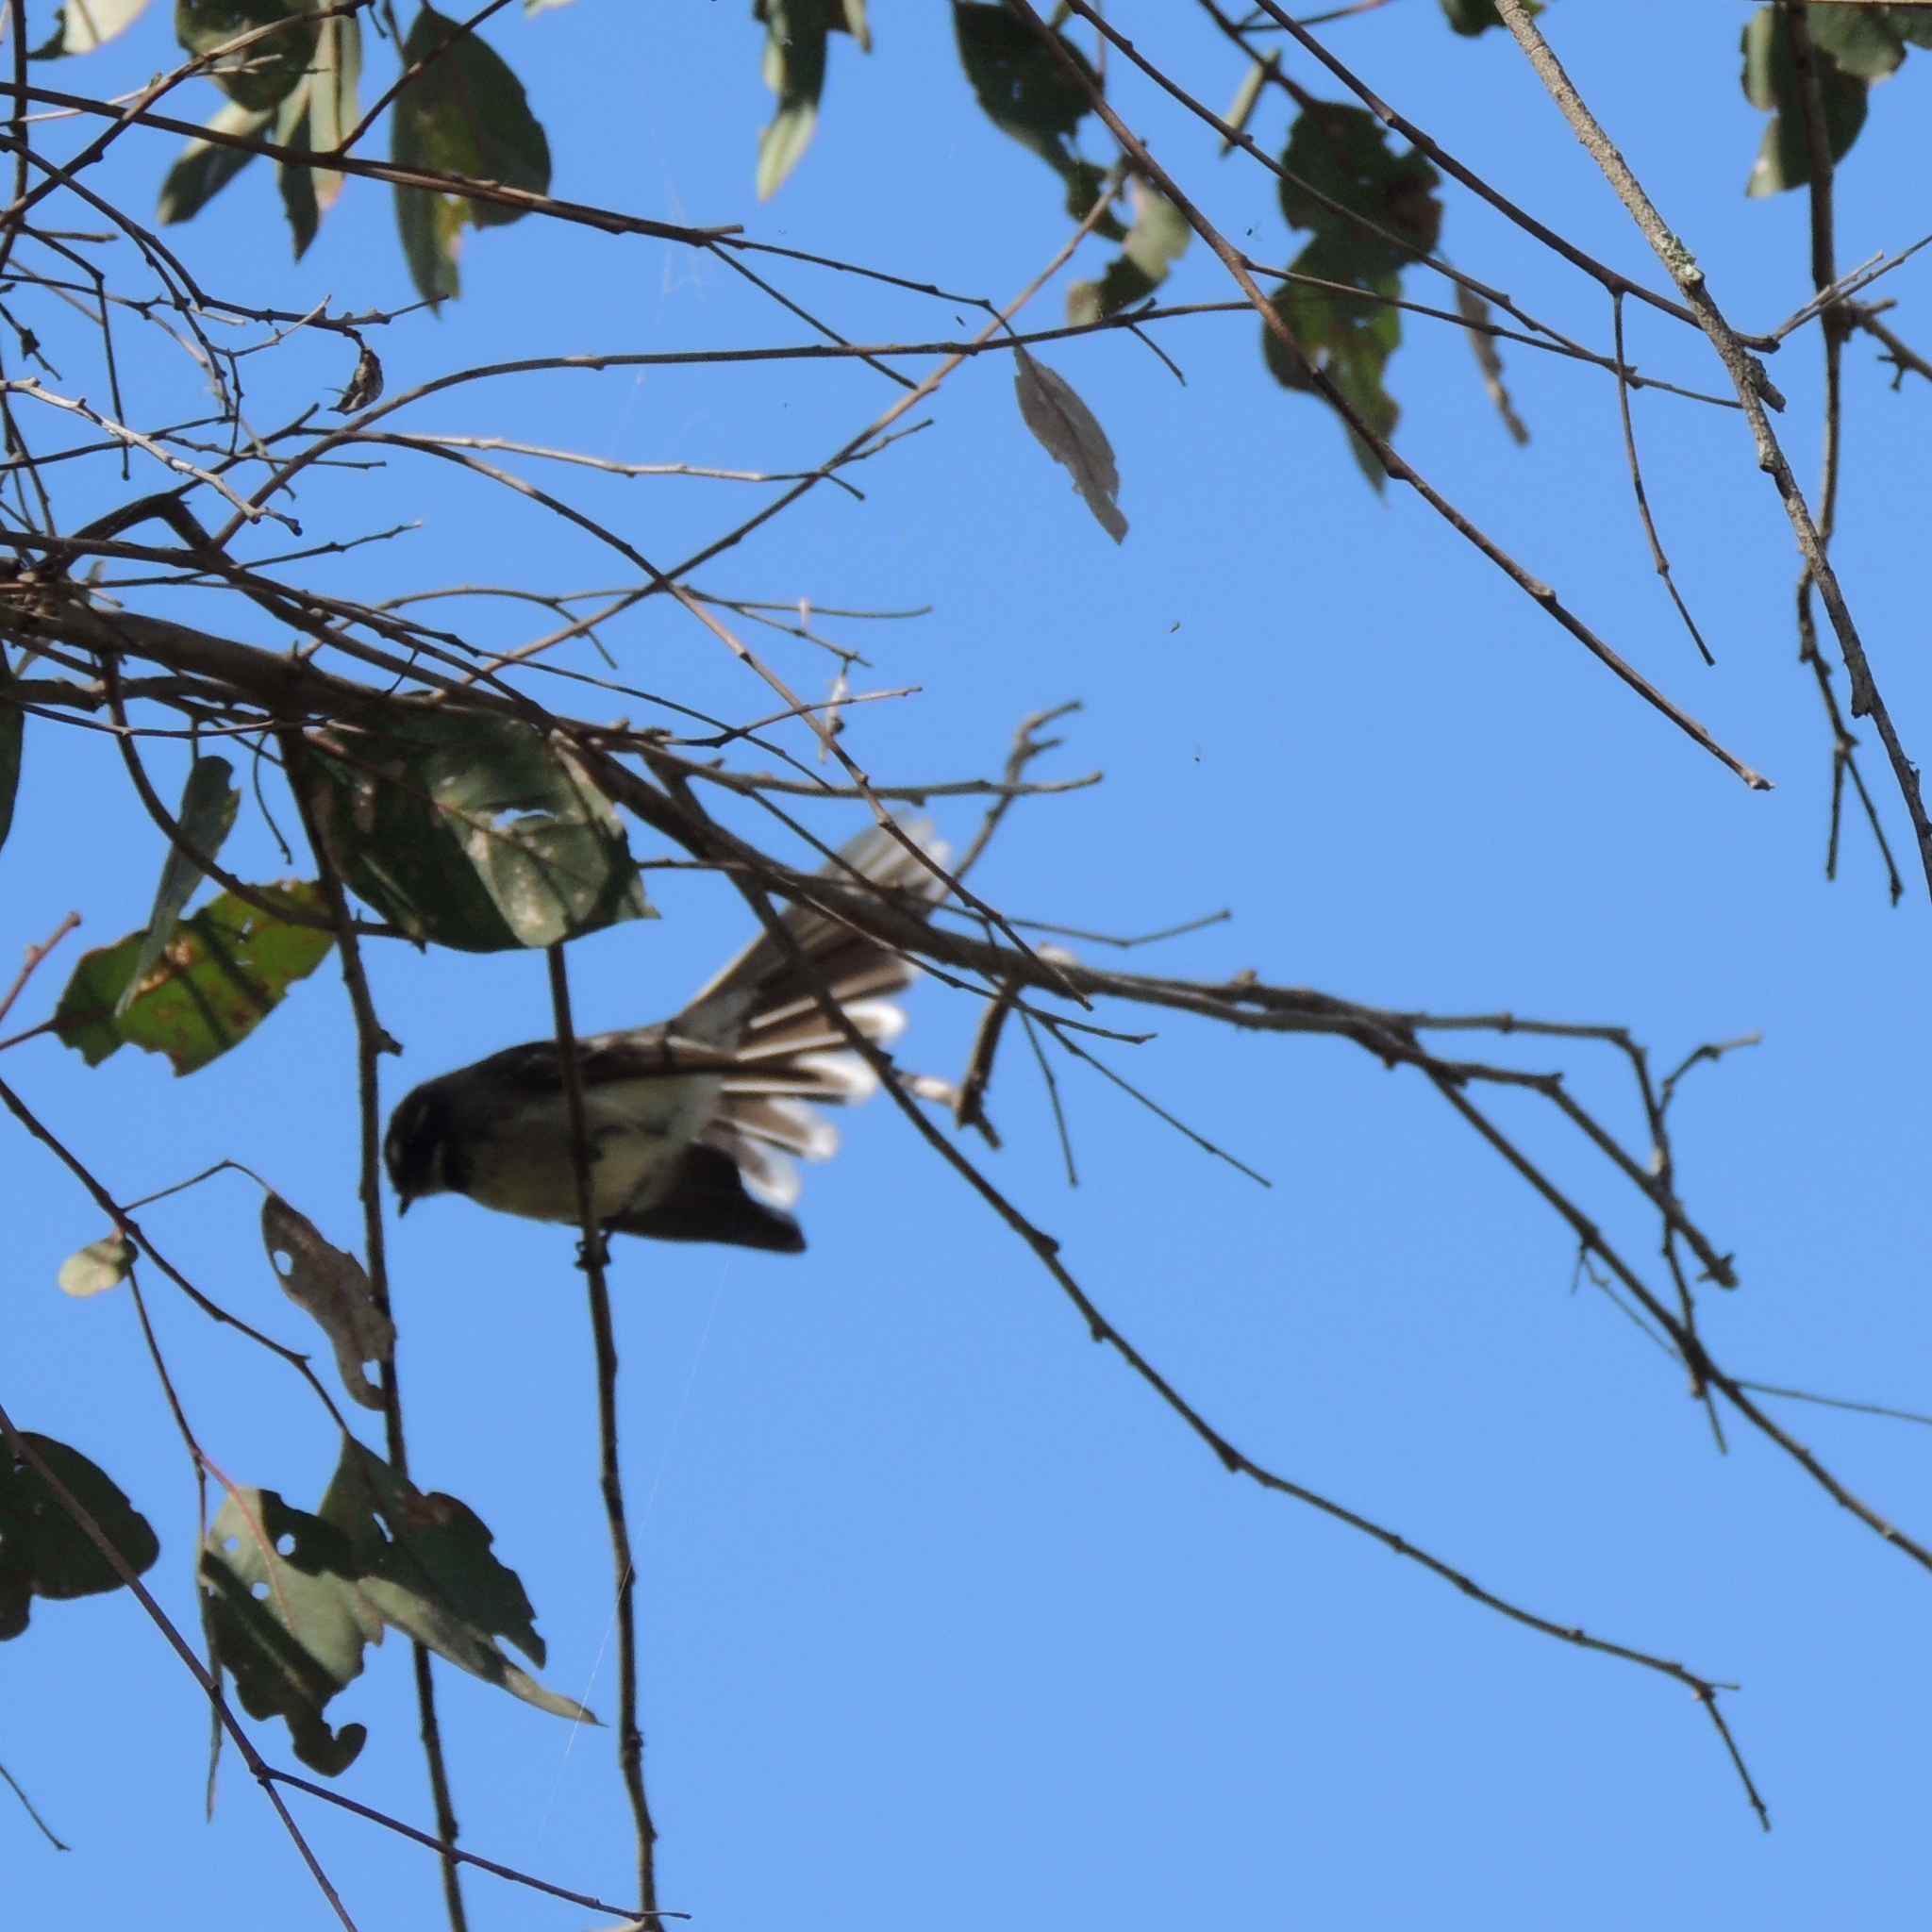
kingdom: Animalia
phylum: Chordata
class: Aves
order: Passeriformes
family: Rhipiduridae
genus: Rhipidura
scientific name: Rhipidura albiscapa
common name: Grey fantail
